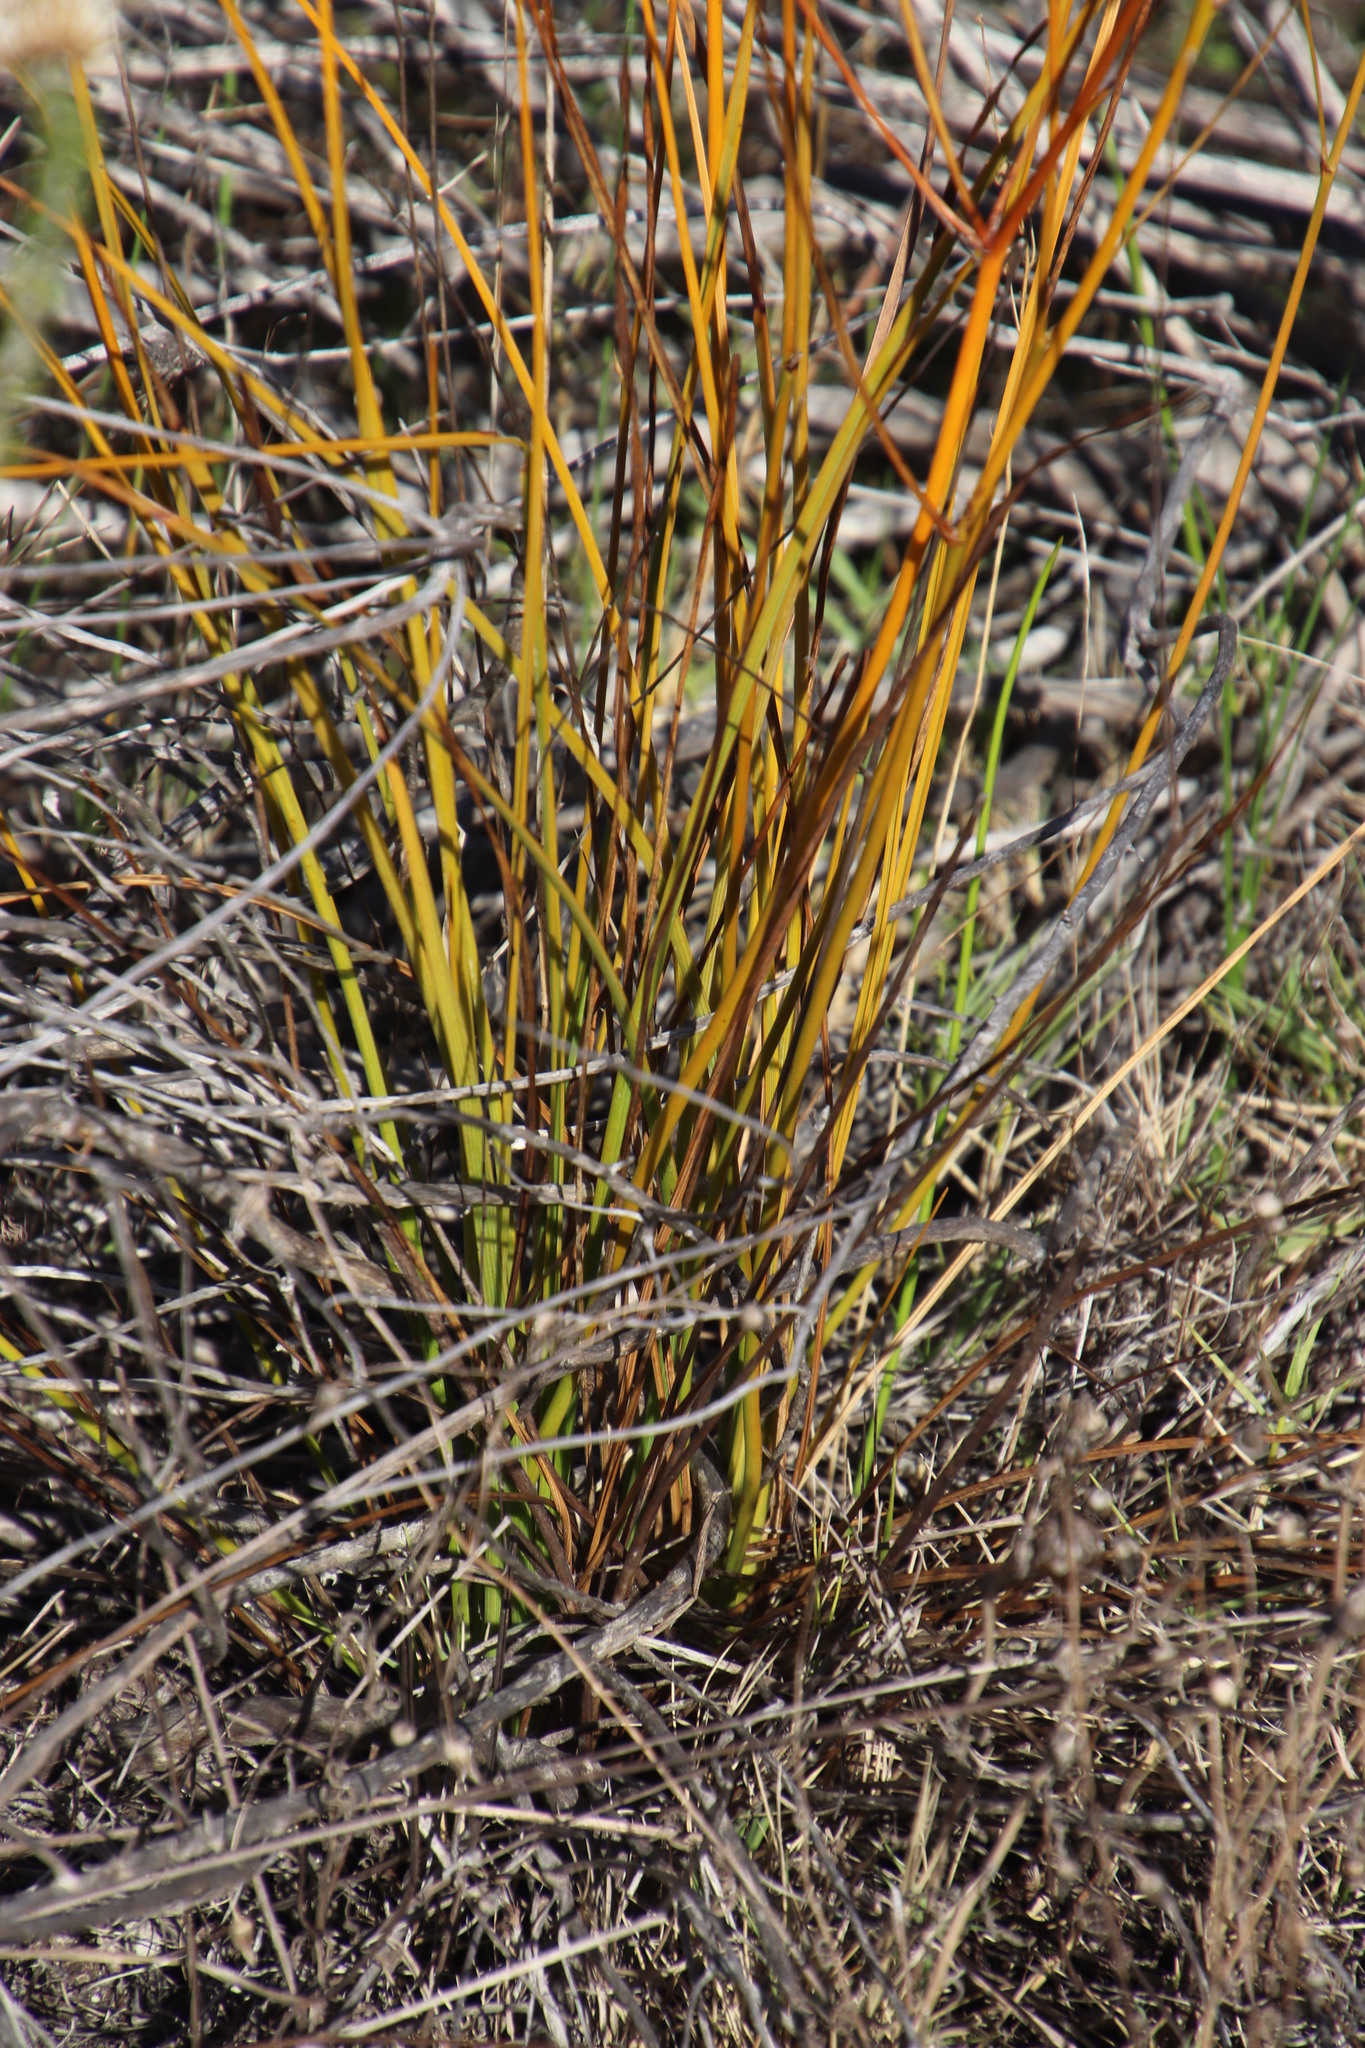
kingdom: Plantae
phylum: Tracheophyta
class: Liliopsida
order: Asparagales
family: Asphodelaceae
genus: Caesia
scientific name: Caesia contorta
